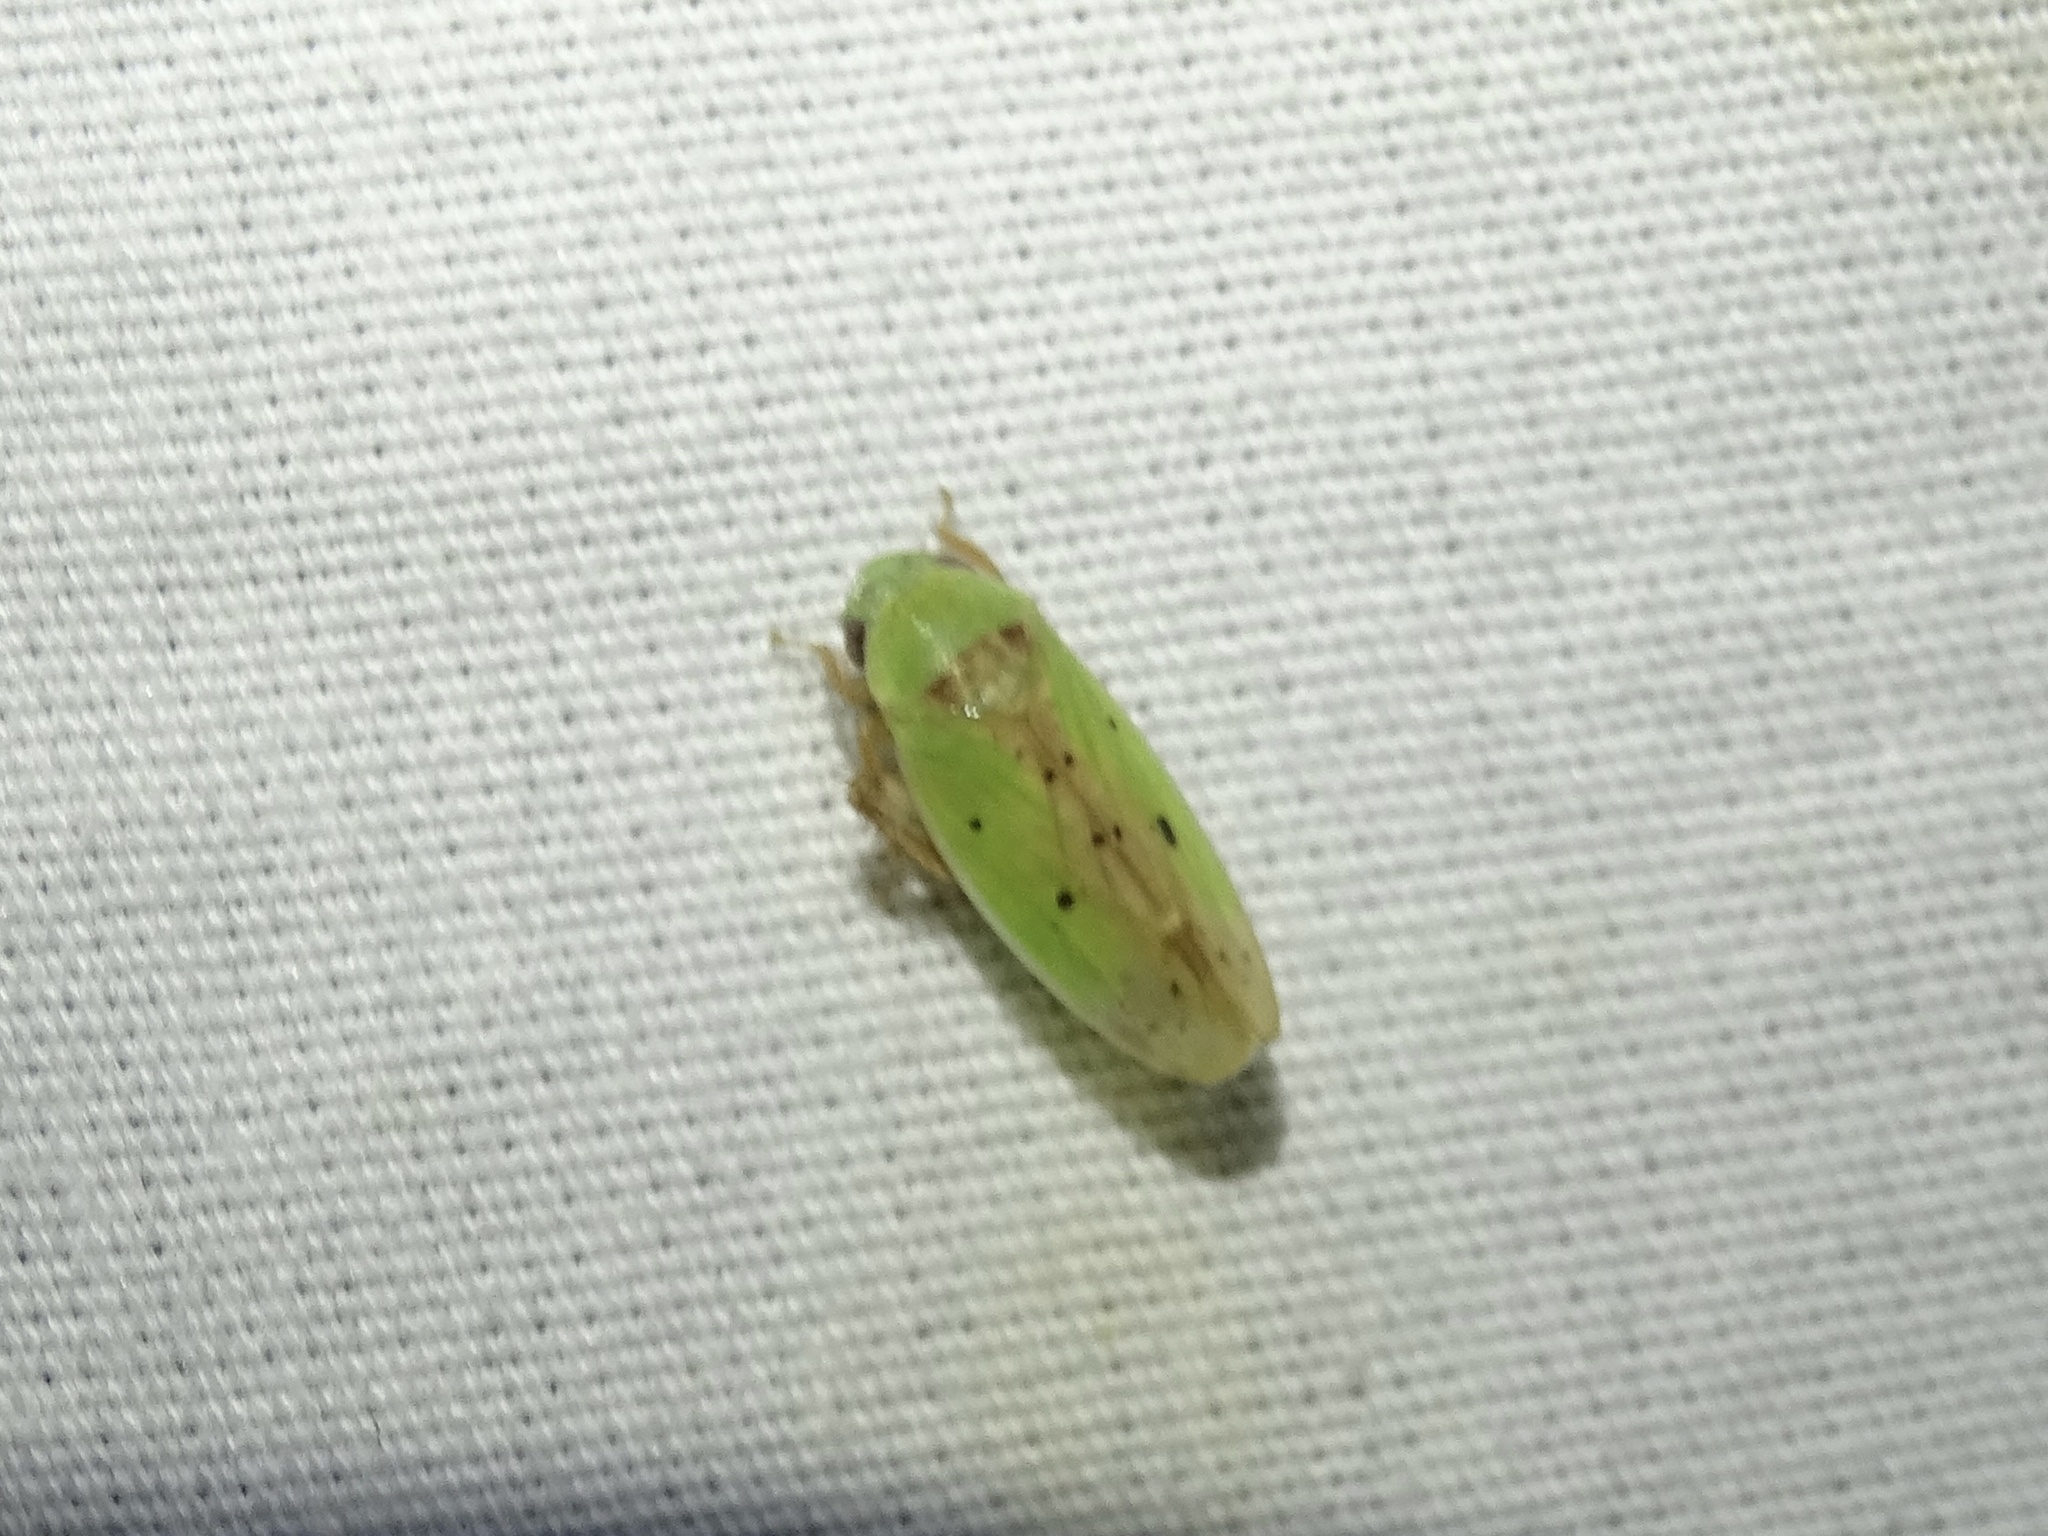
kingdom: Animalia
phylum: Arthropoda
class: Insecta
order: Hemiptera
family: Cicadellidae
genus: Ponana
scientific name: Ponana
